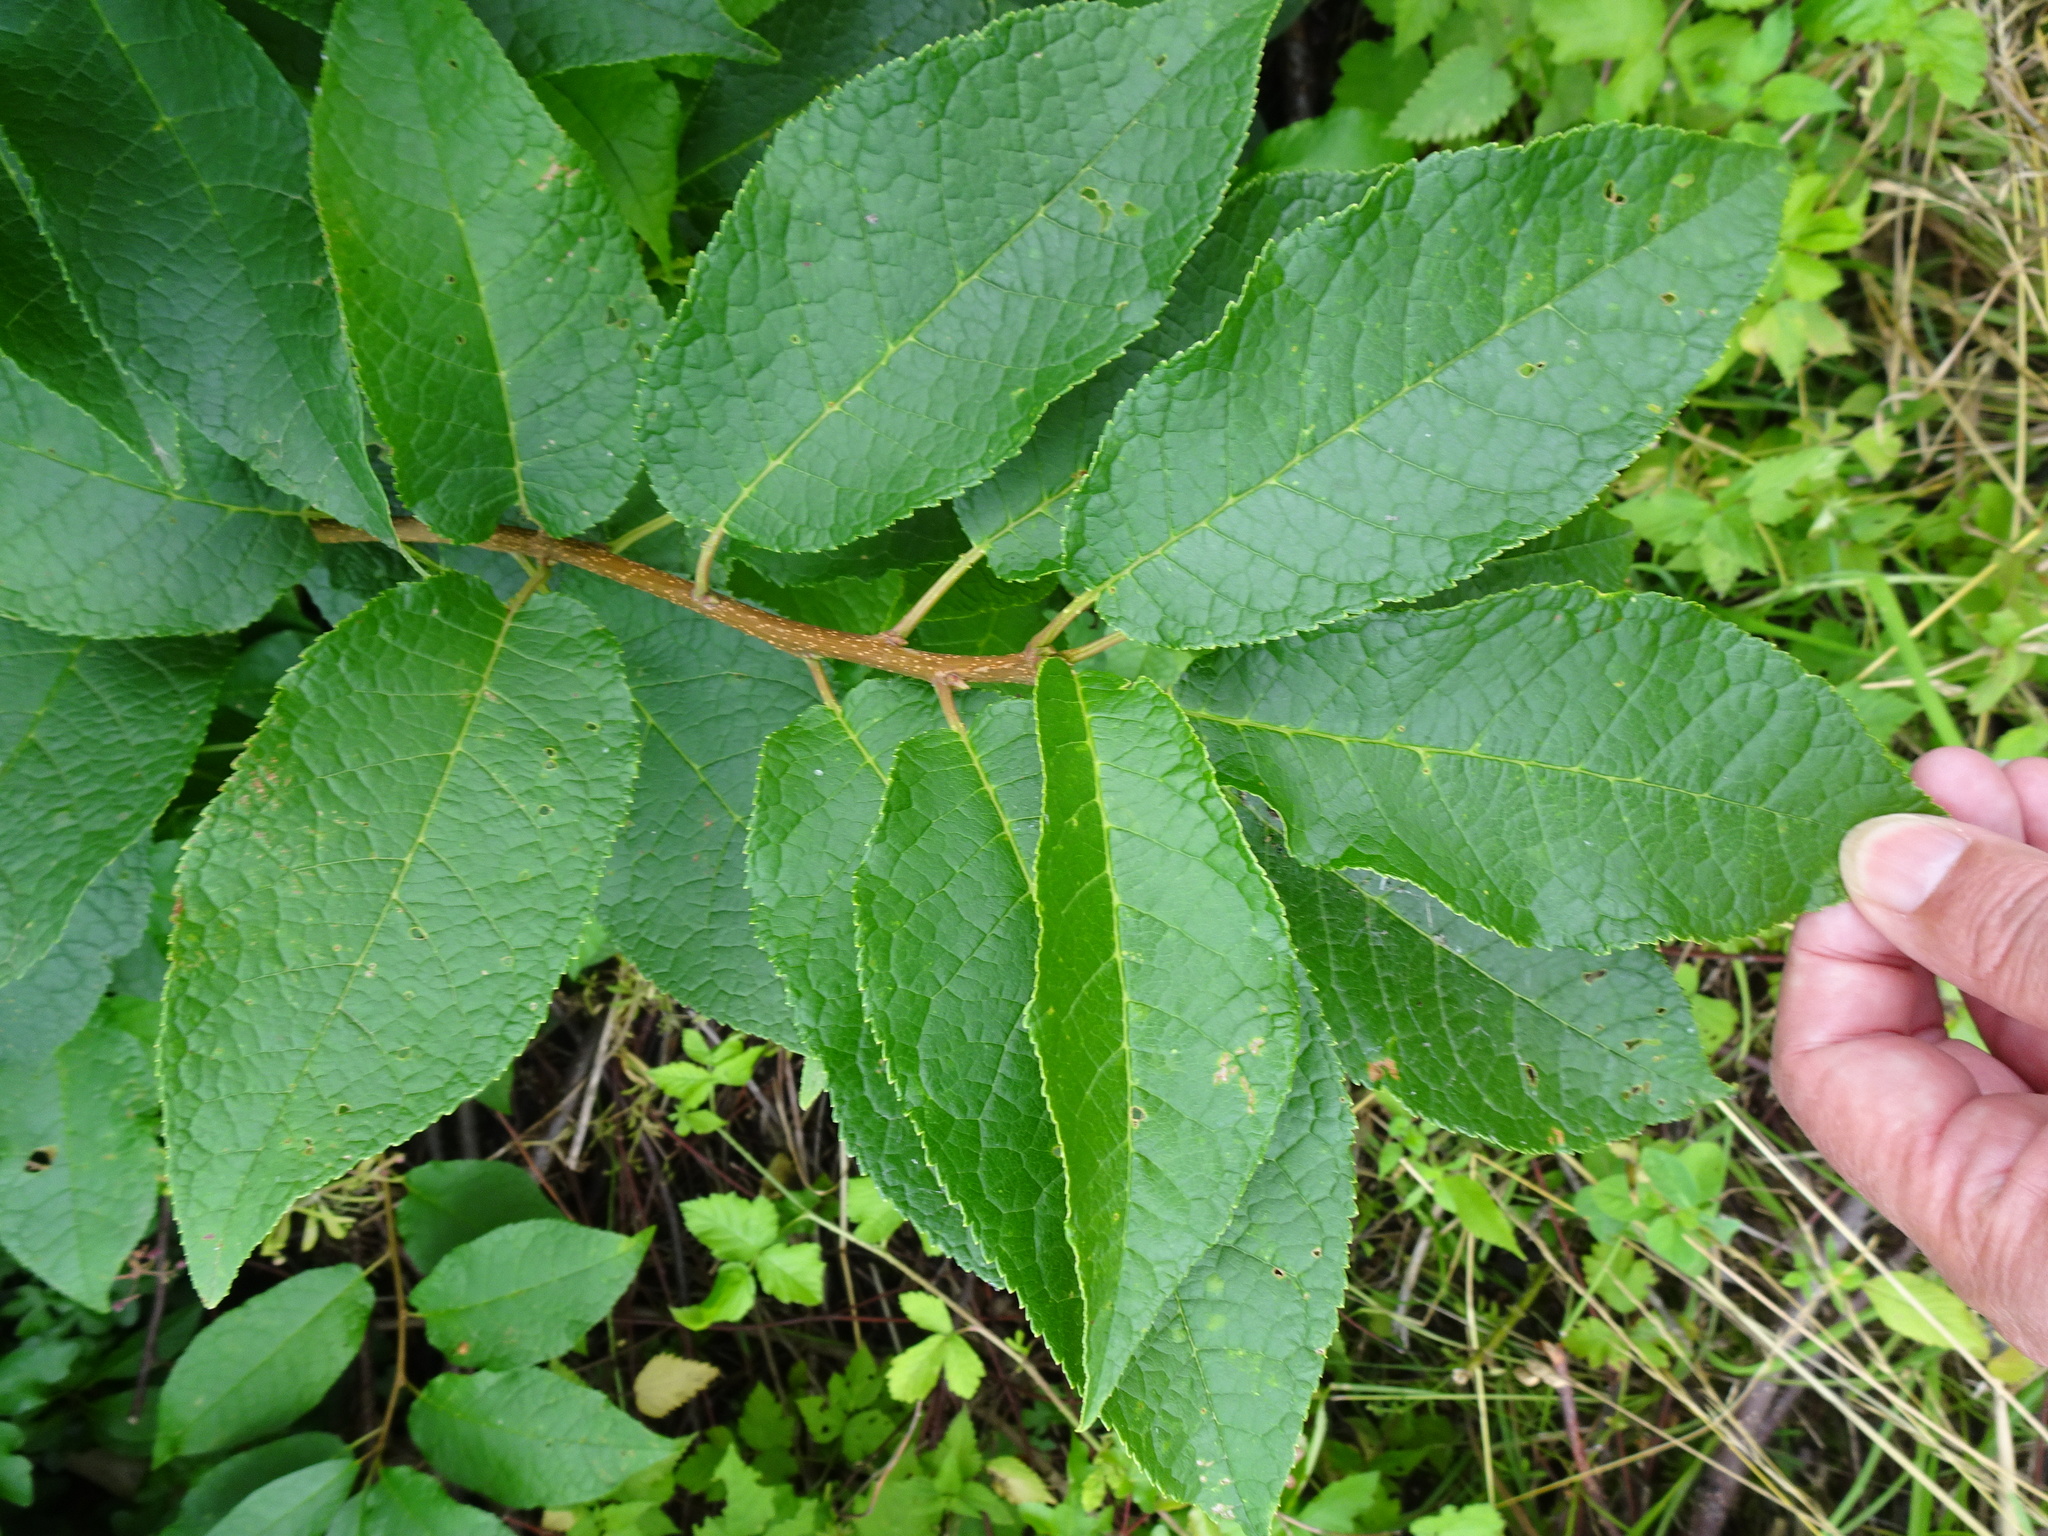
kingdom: Plantae
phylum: Tracheophyta
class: Magnoliopsida
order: Rosales
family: Rosaceae
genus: Prunus
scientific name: Prunus padus
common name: Bird cherry
